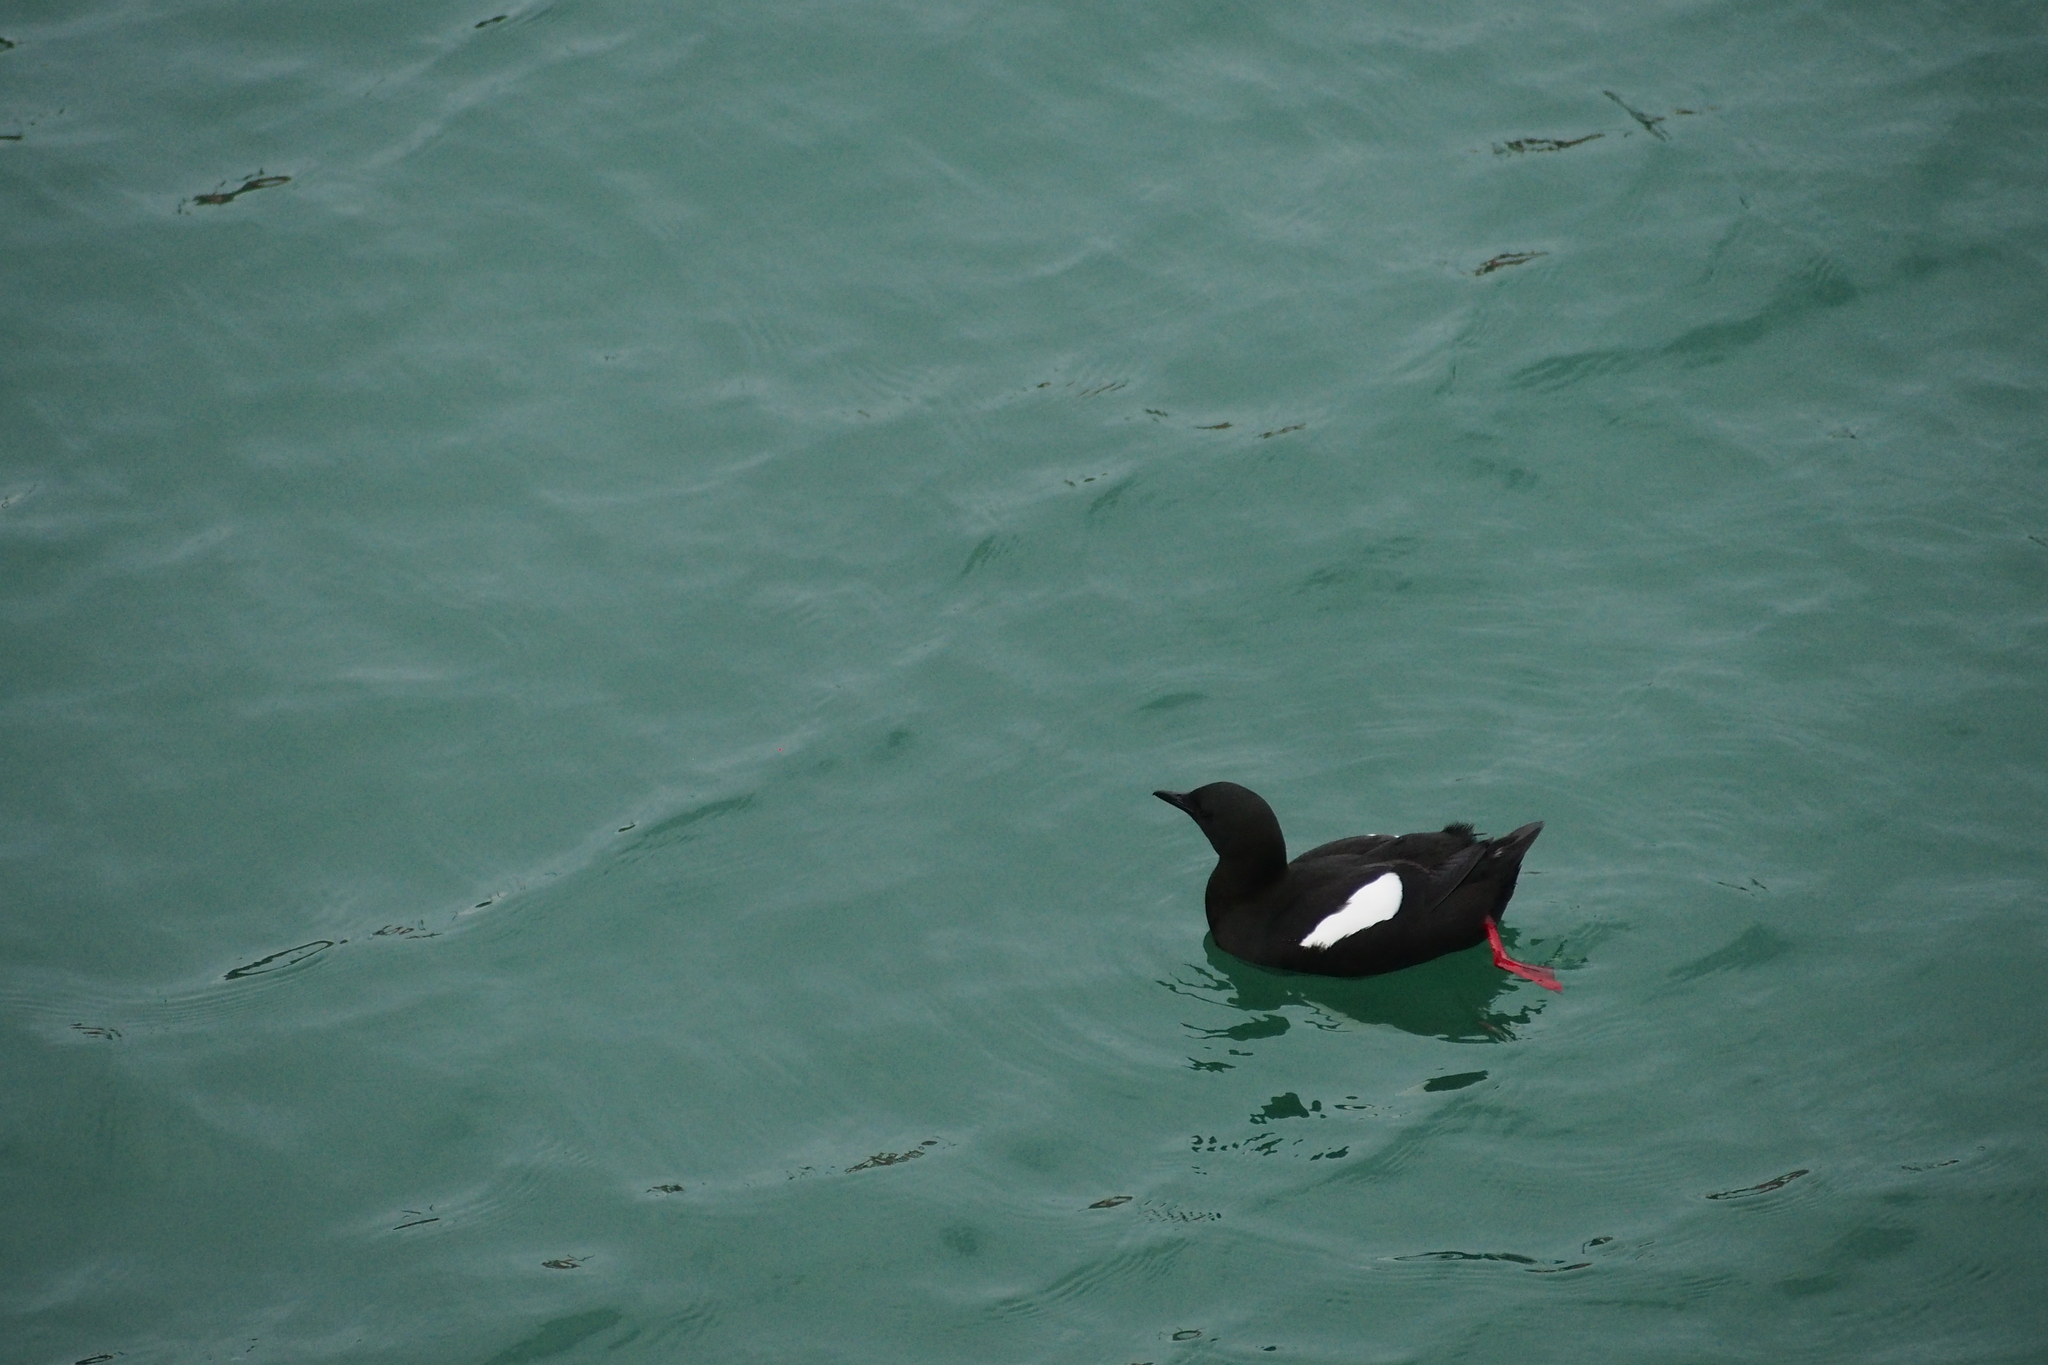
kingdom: Animalia
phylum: Chordata
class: Aves
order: Charadriiformes
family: Alcidae
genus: Cepphus
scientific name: Cepphus grylle
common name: Black guillemot
